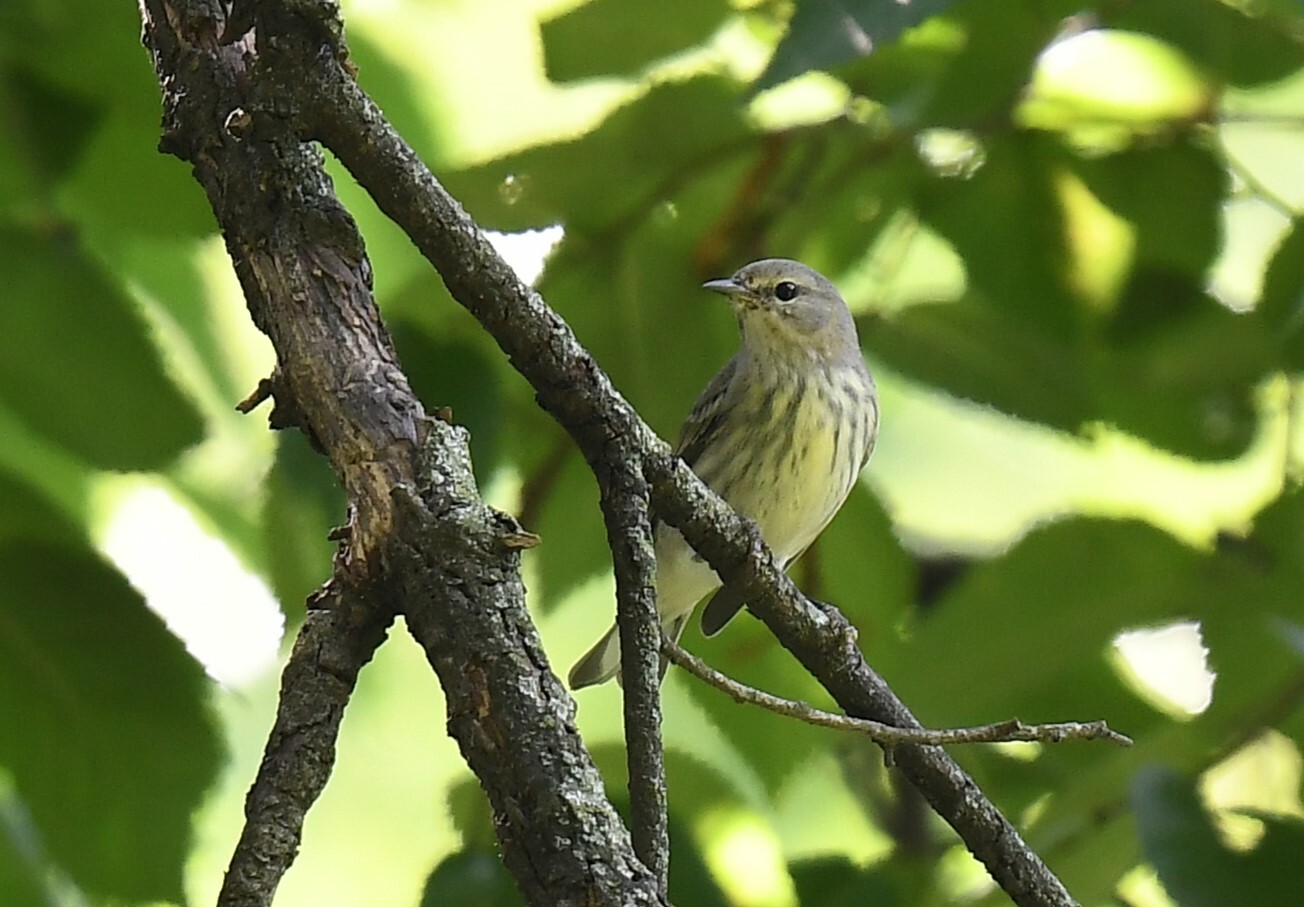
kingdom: Animalia
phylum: Chordata
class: Aves
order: Passeriformes
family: Parulidae
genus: Setophaga
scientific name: Setophaga tigrina
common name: Cape may warbler
